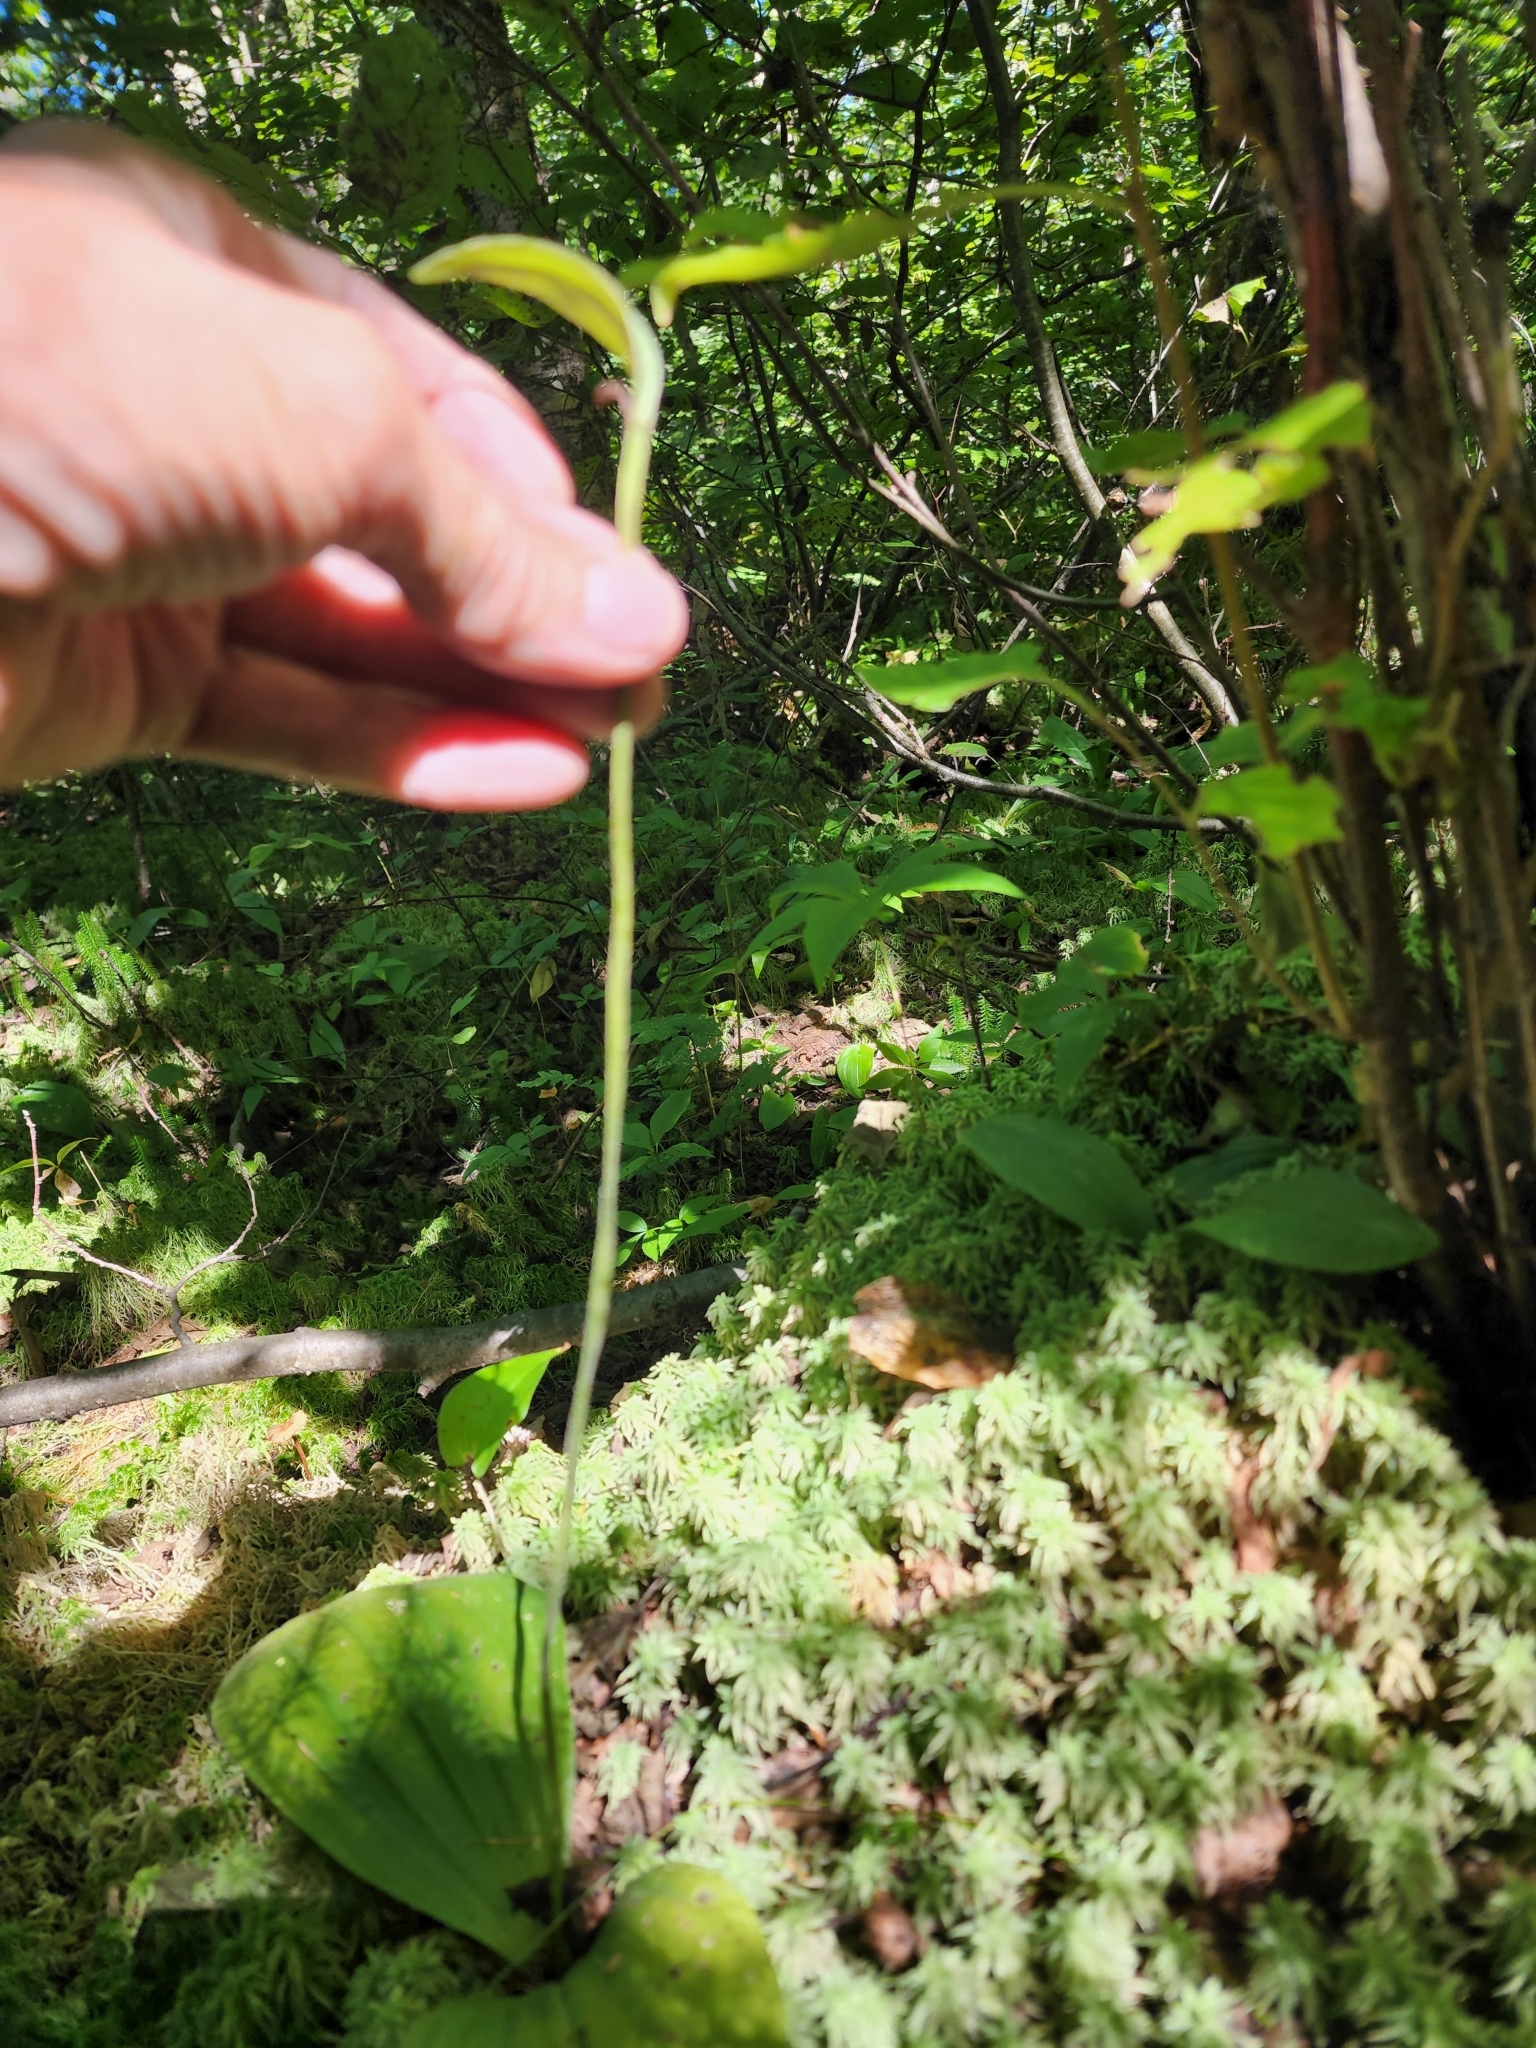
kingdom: Plantae
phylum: Tracheophyta
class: Liliopsida
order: Asparagales
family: Orchidaceae
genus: Cypripedium
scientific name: Cypripedium acaule
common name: Pink lady's-slipper
